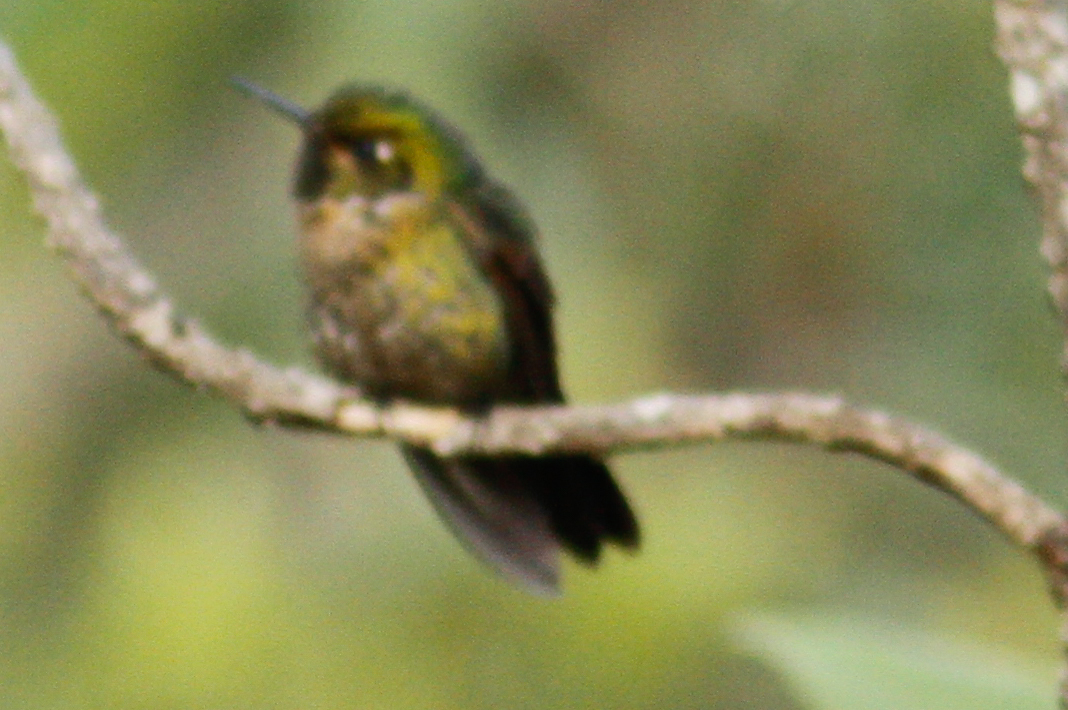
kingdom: Animalia
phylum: Chordata
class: Aves
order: Apodiformes
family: Trochilidae
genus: Metallura
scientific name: Metallura tyrianthina
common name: Tyrian metaltail
